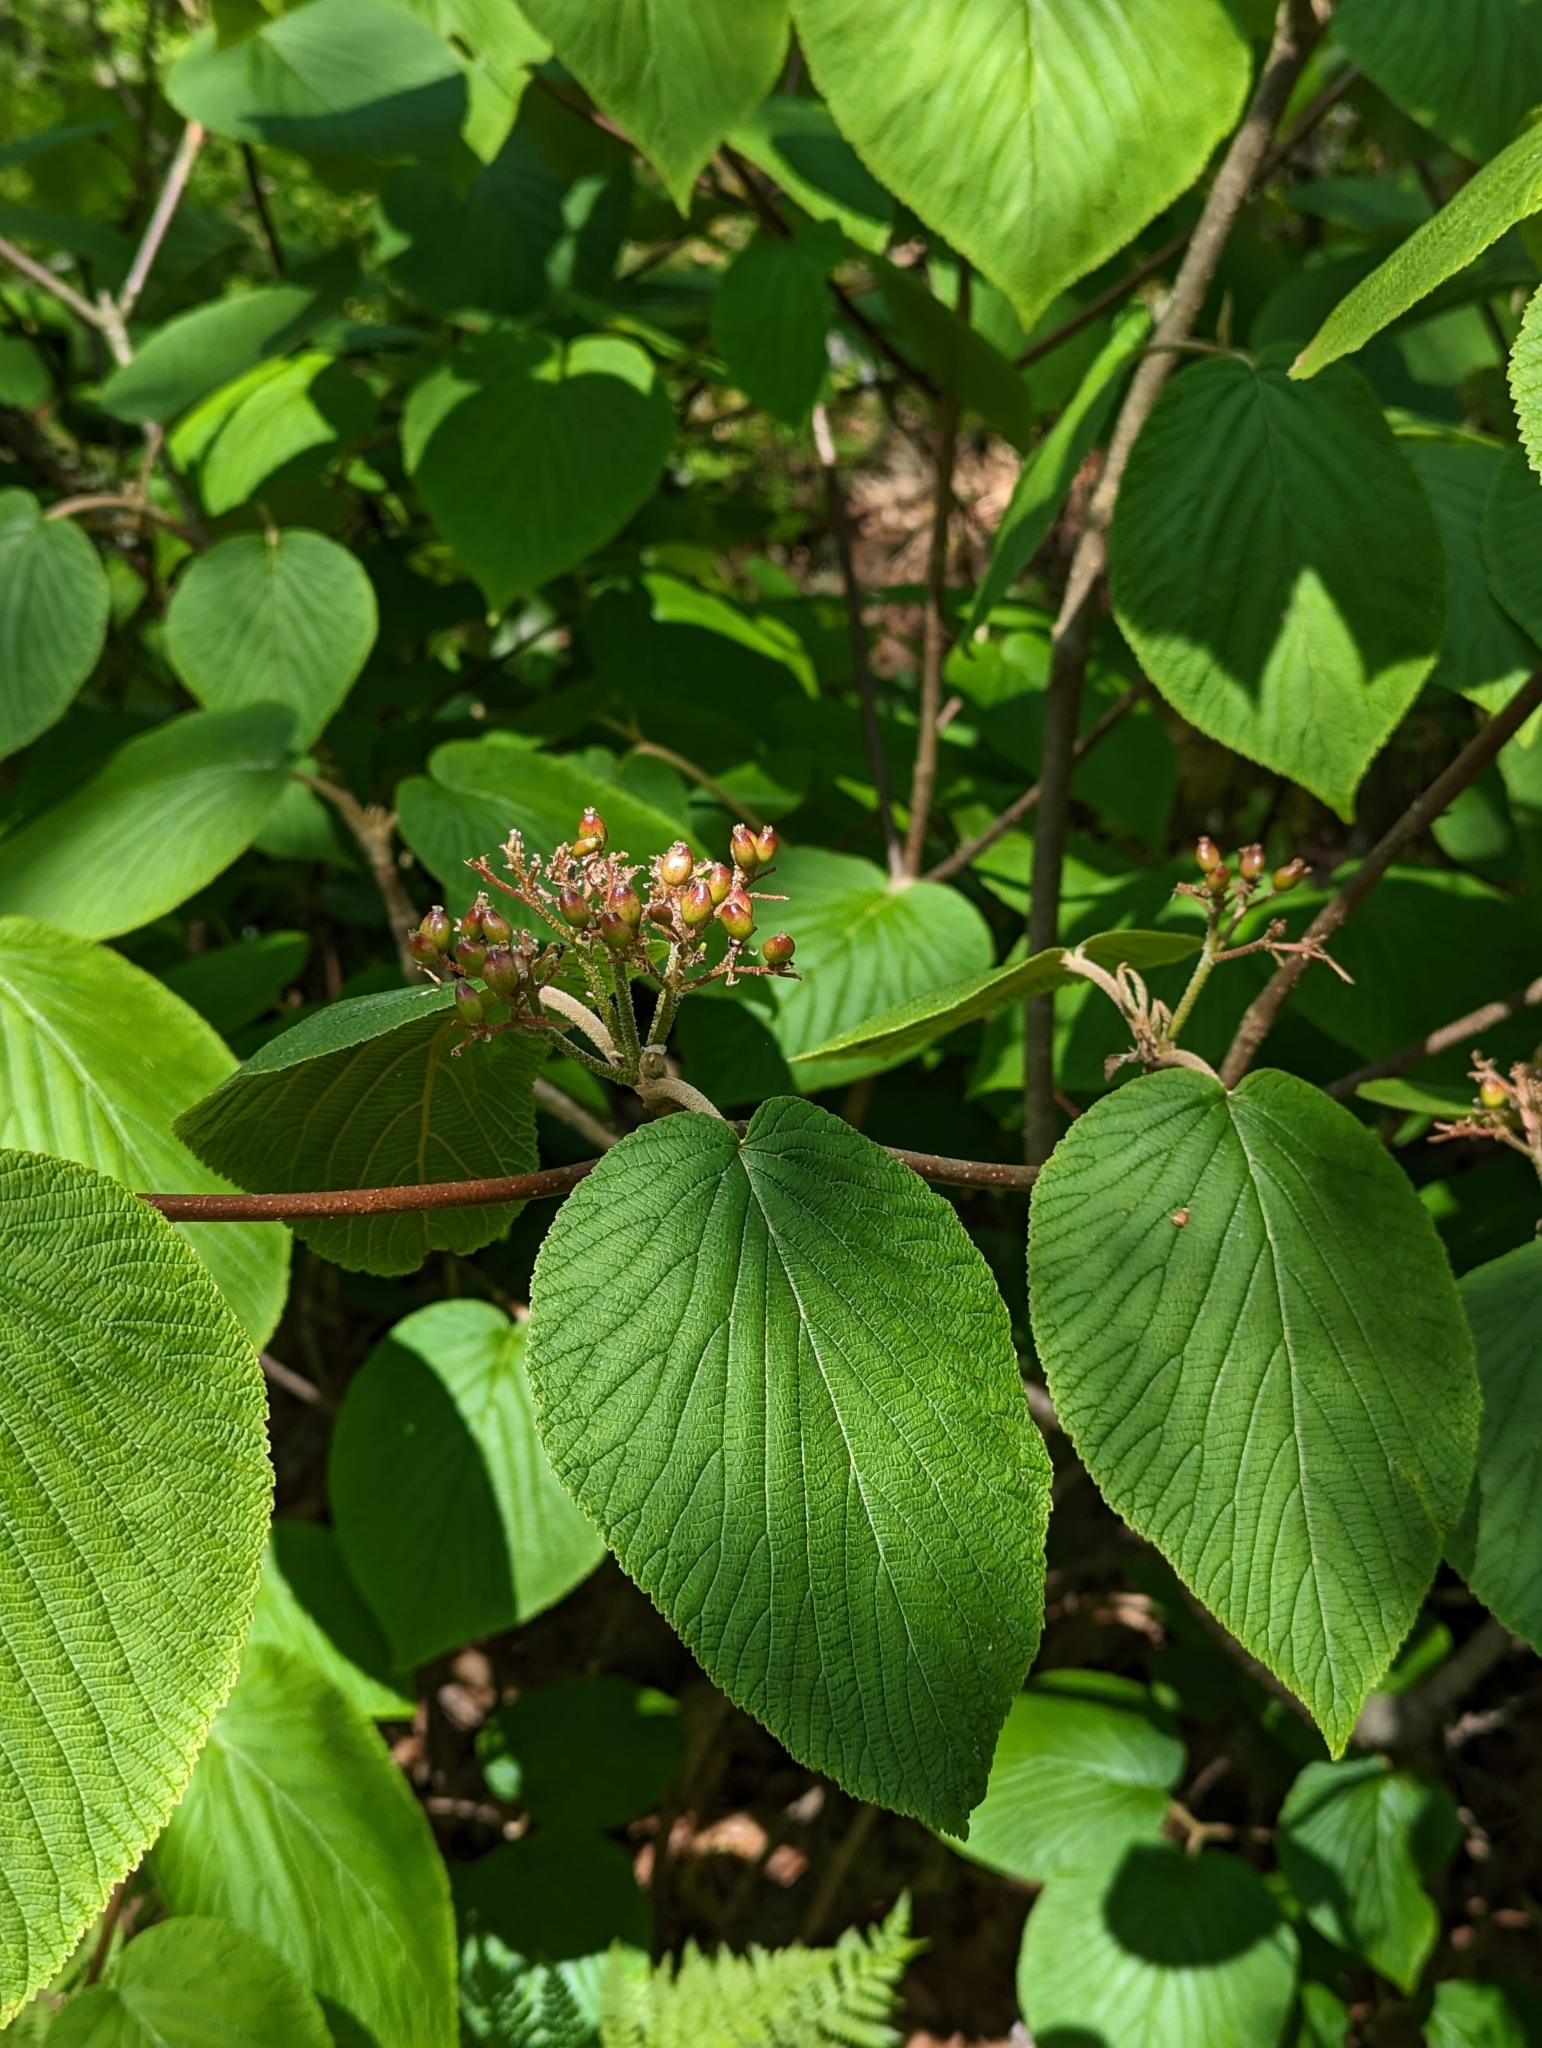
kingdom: Plantae
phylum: Tracheophyta
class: Magnoliopsida
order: Dipsacales
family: Viburnaceae
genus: Viburnum
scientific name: Viburnum lantanoides
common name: Hobblebush
